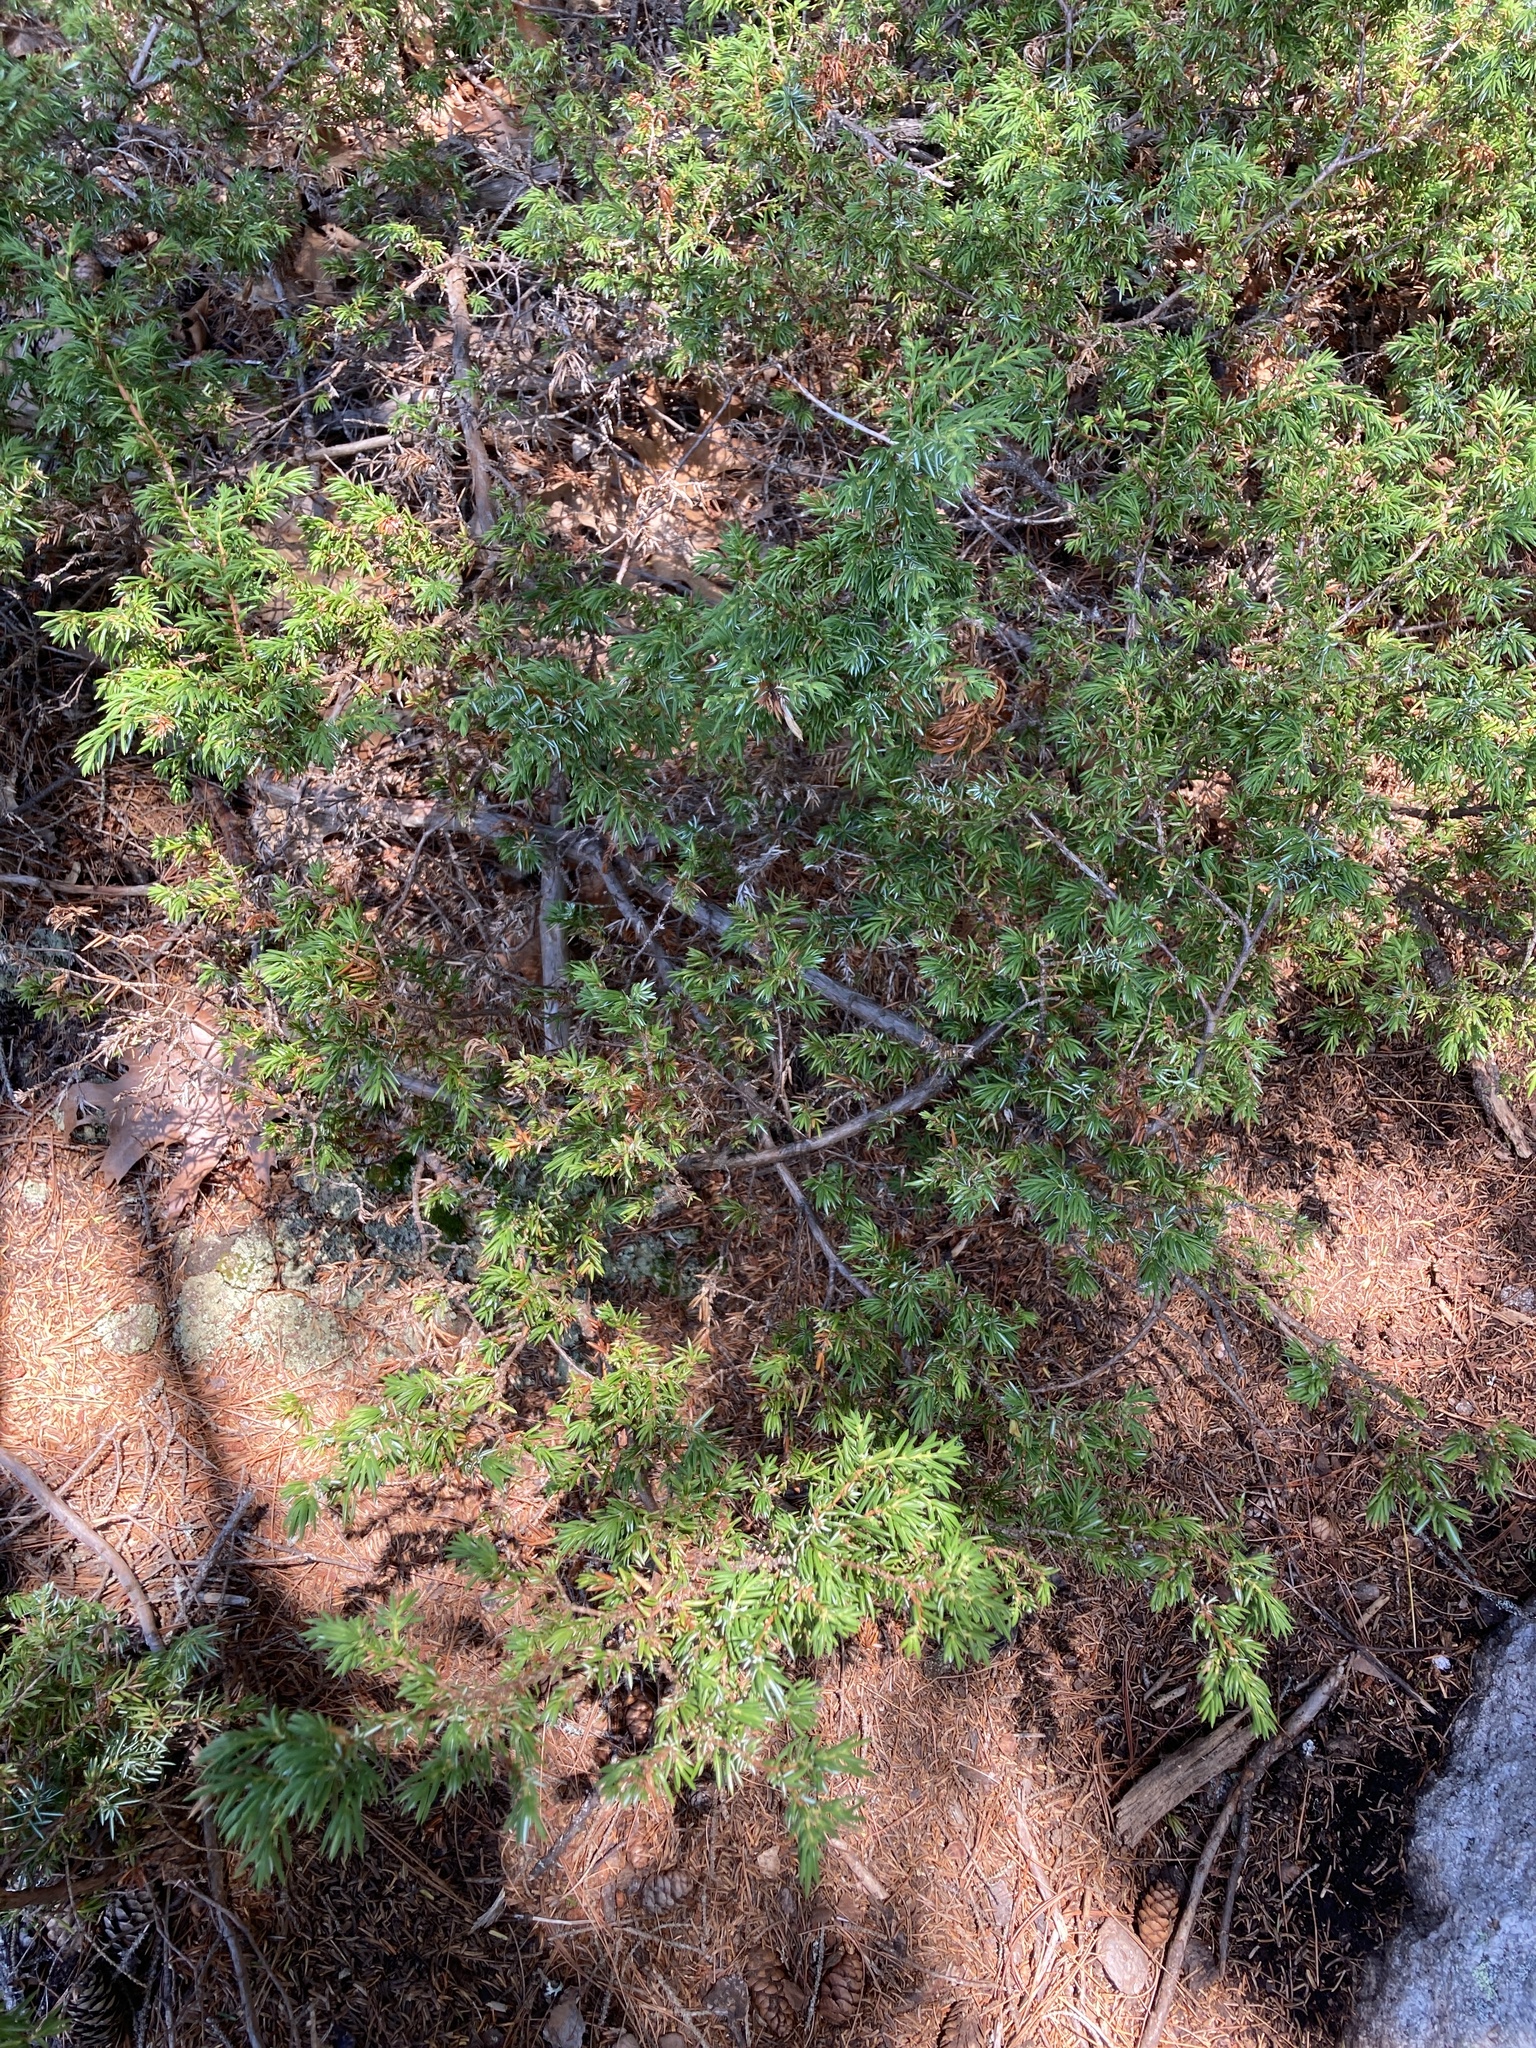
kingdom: Plantae
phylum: Tracheophyta
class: Pinopsida
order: Pinales
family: Cupressaceae
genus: Juniperus
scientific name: Juniperus communis
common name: Common juniper
